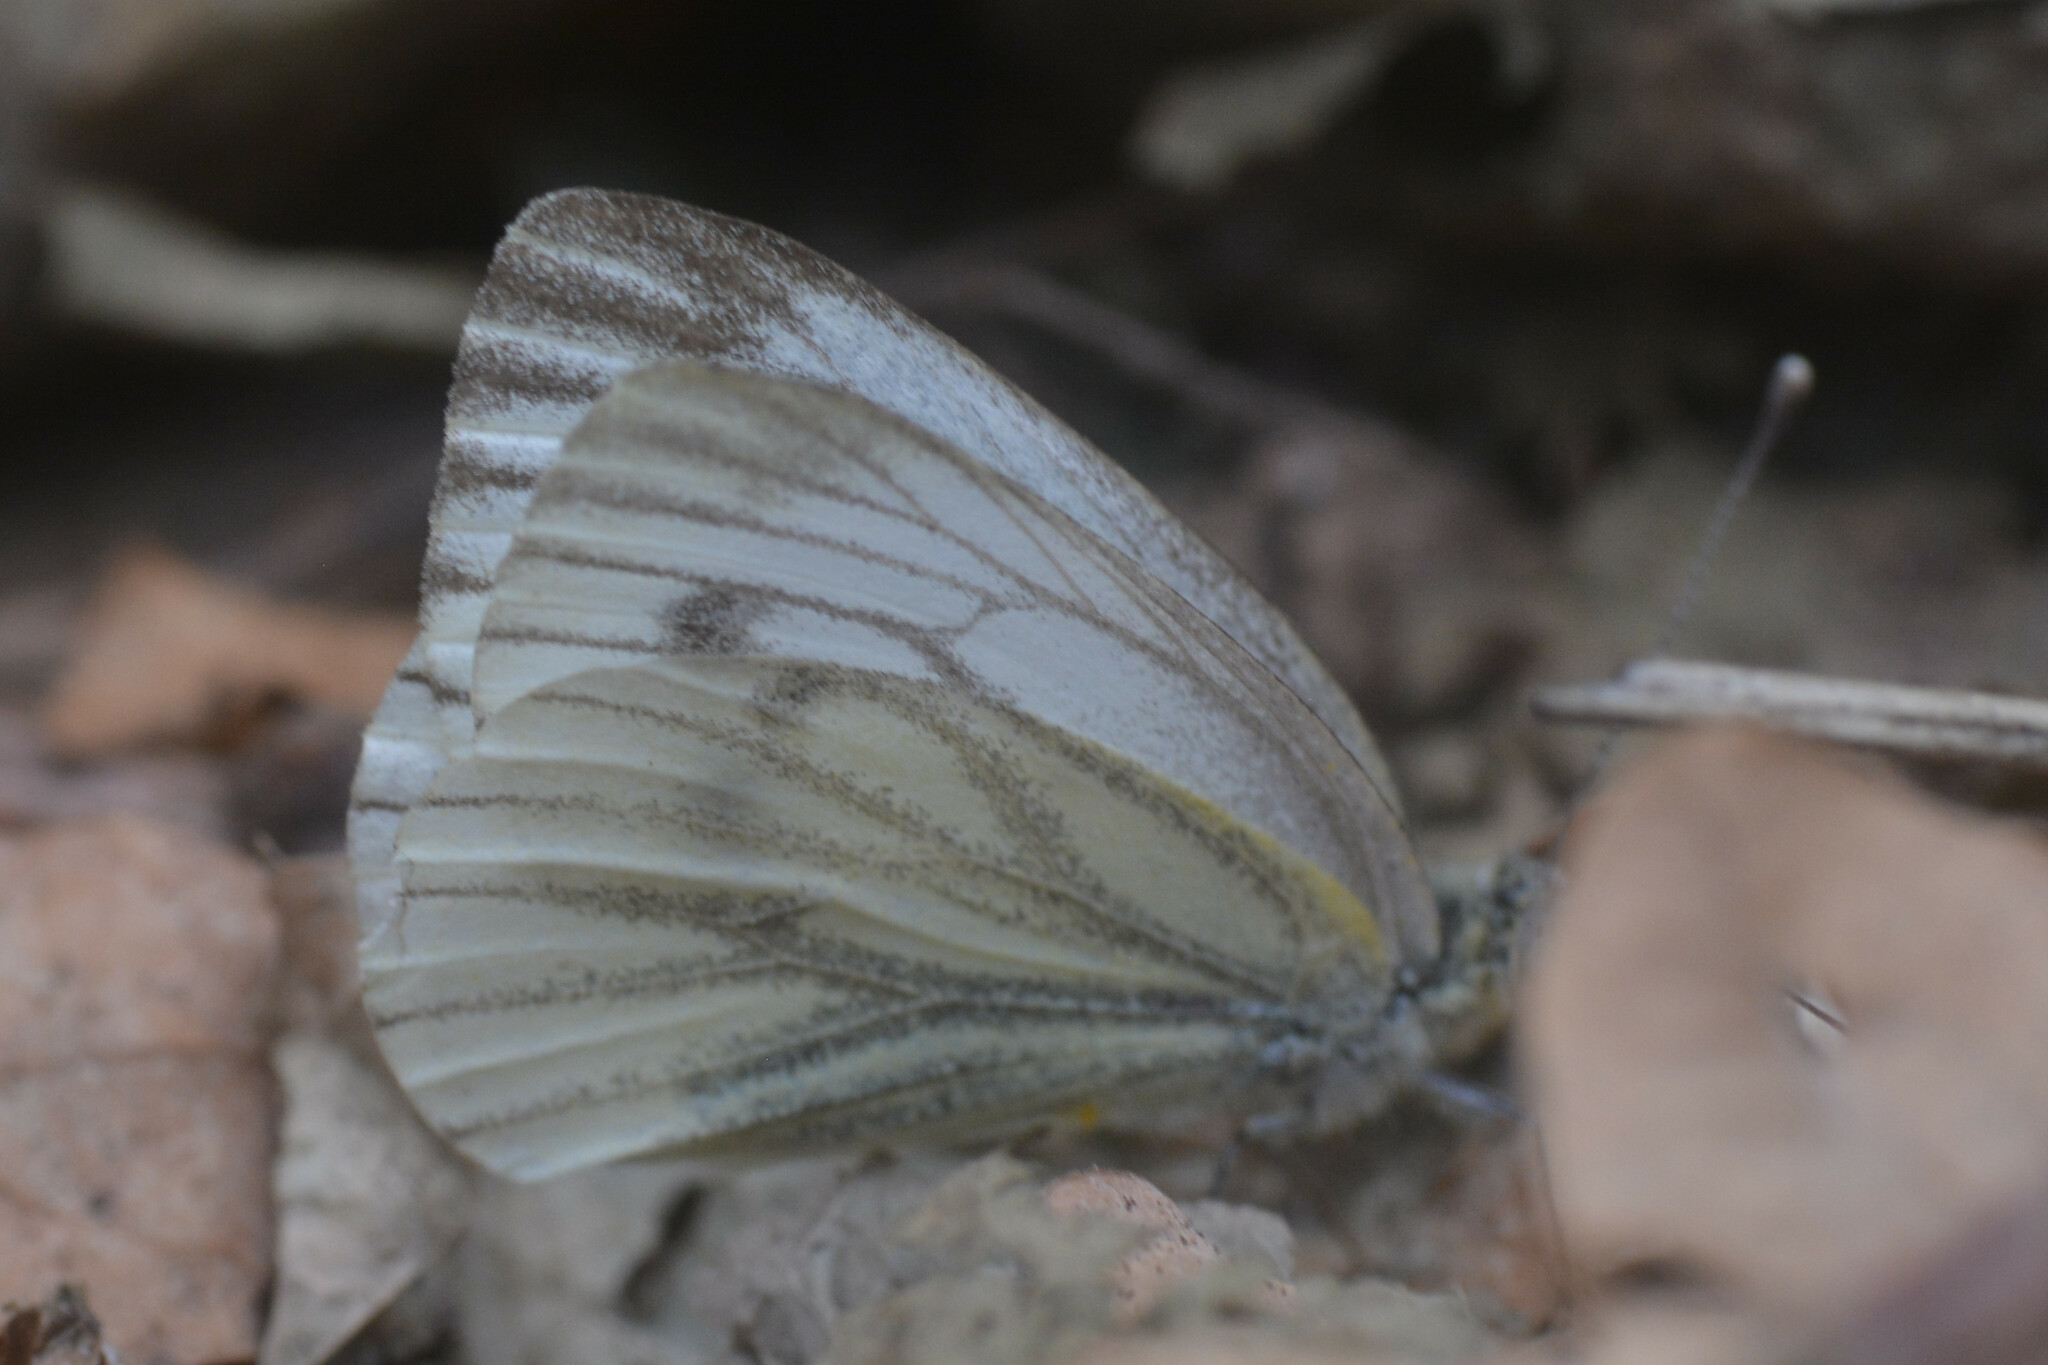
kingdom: Animalia
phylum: Arthropoda
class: Insecta
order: Lepidoptera
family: Pieridae
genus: Pieris
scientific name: Pieris napi
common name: Green-veined white
